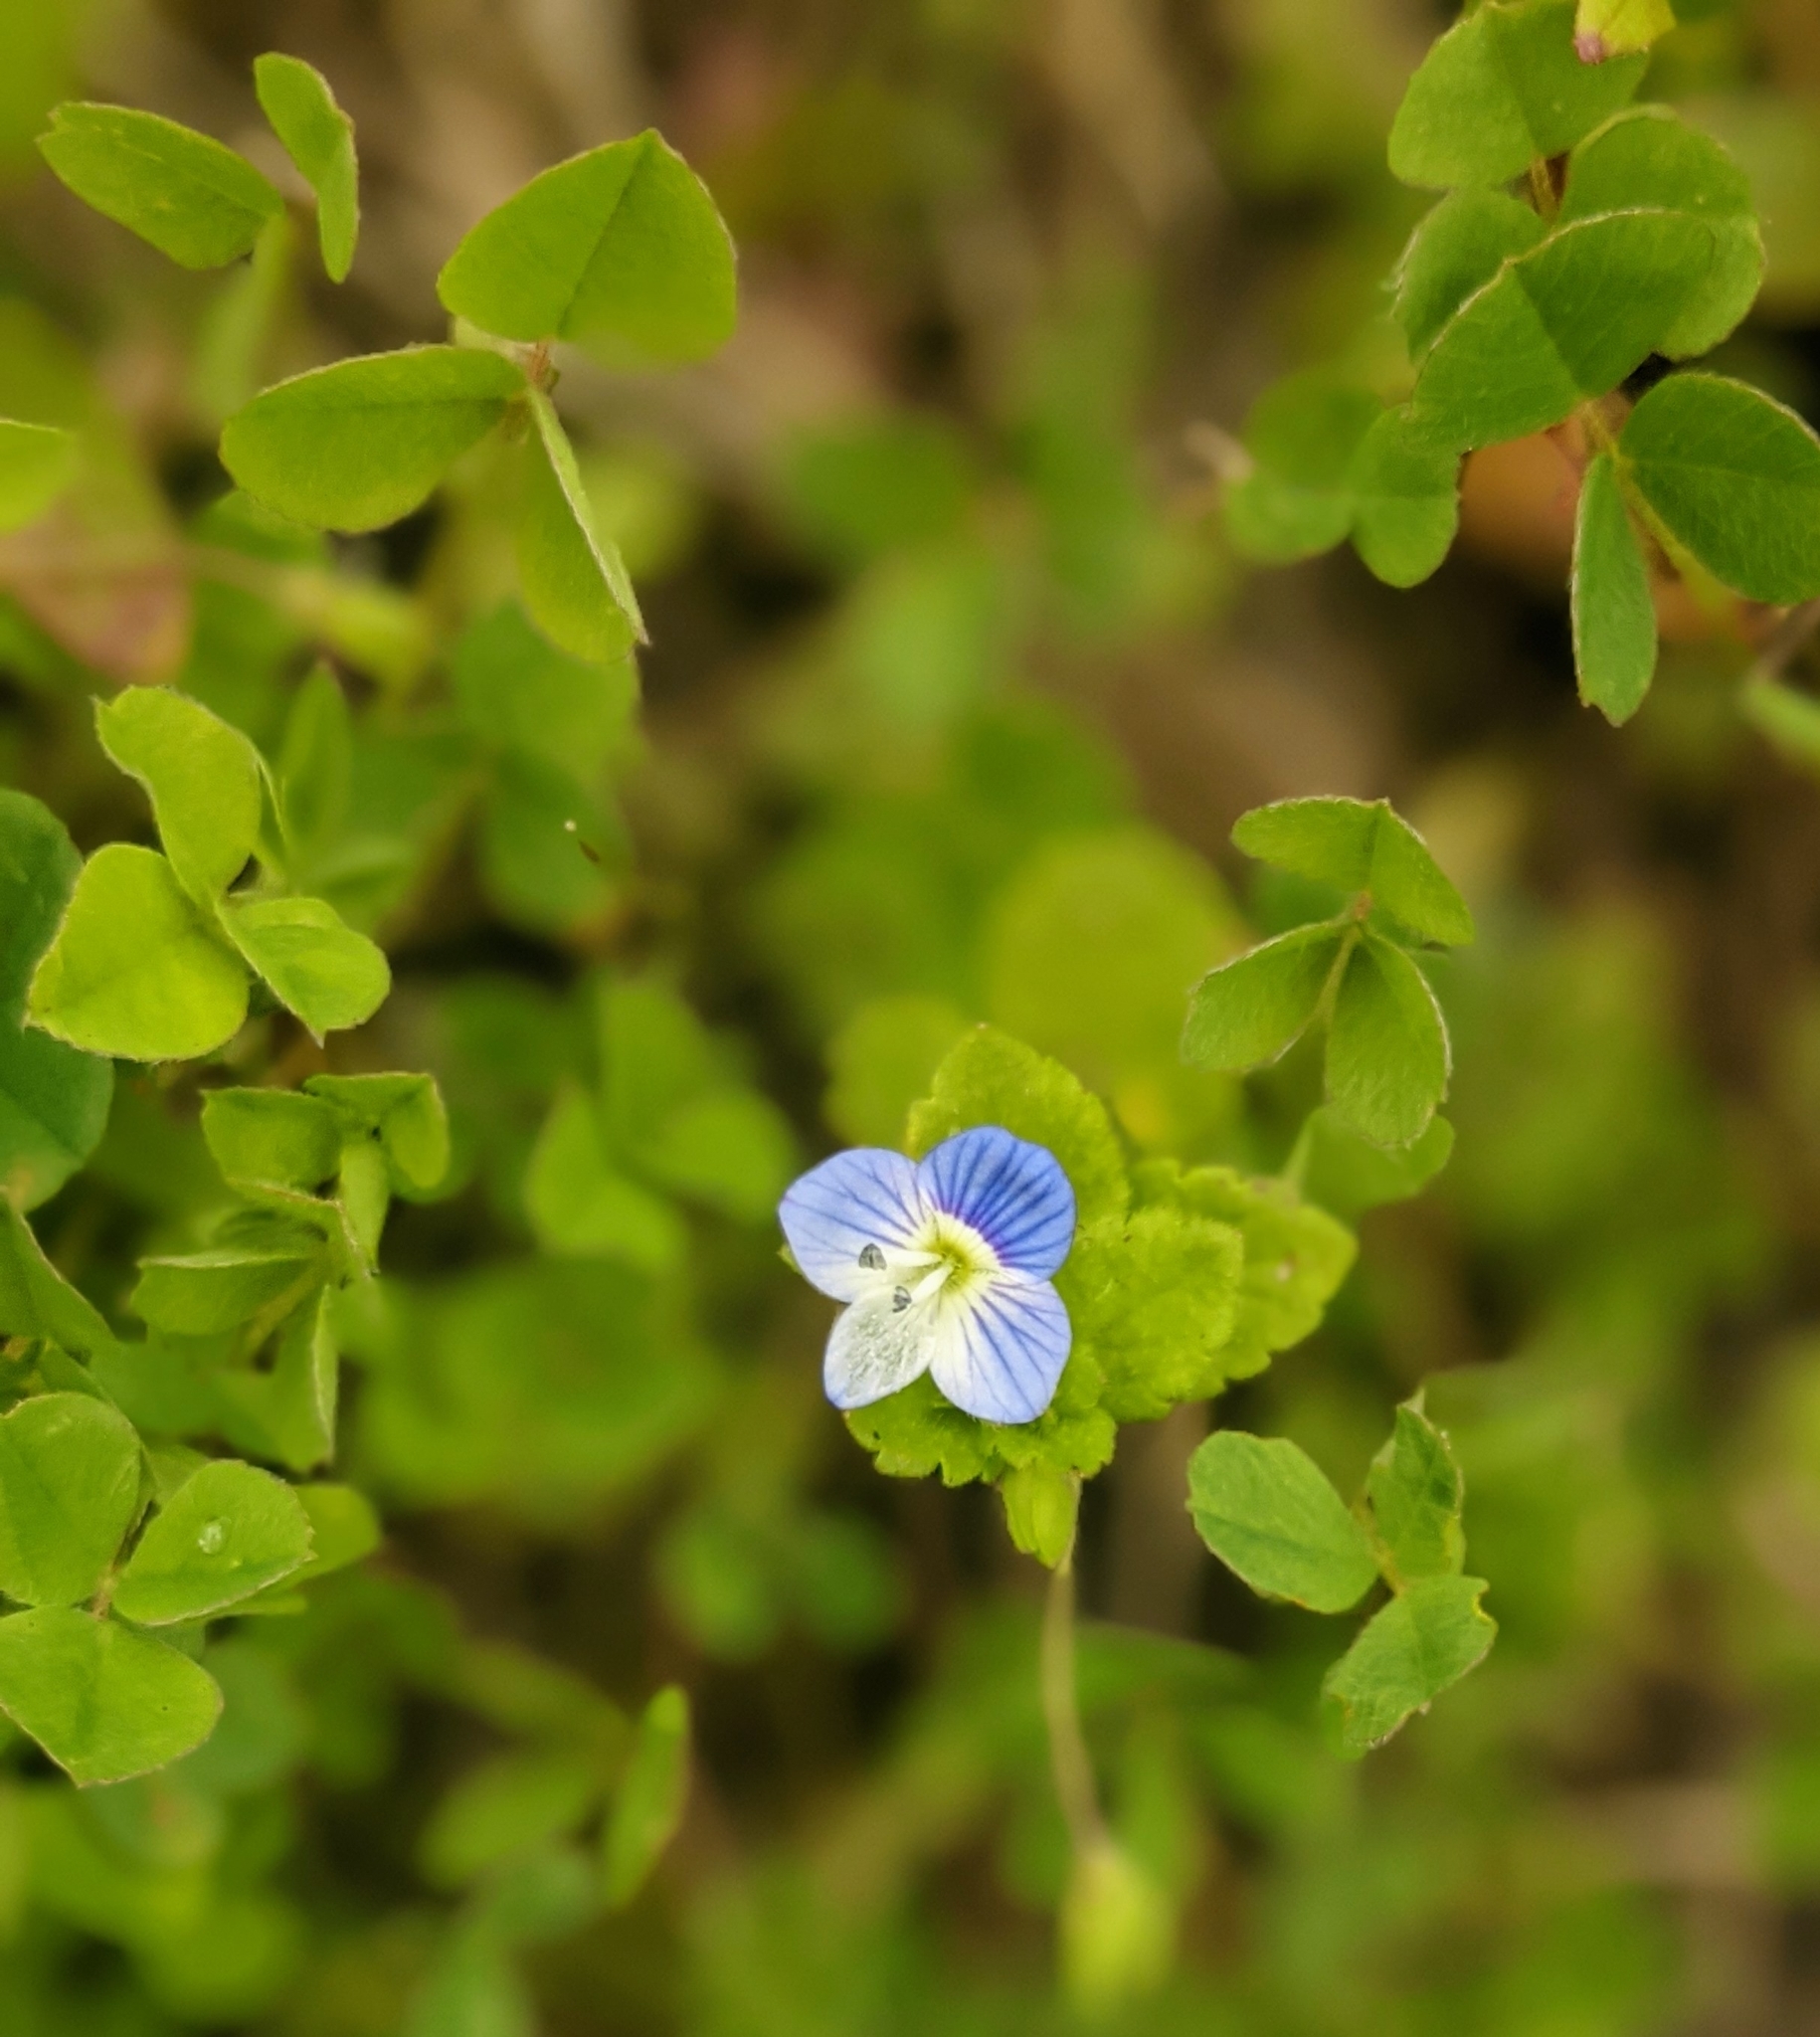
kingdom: Plantae
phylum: Tracheophyta
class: Magnoliopsida
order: Lamiales
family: Plantaginaceae
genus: Veronica
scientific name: Veronica persica
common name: Common field-speedwell
